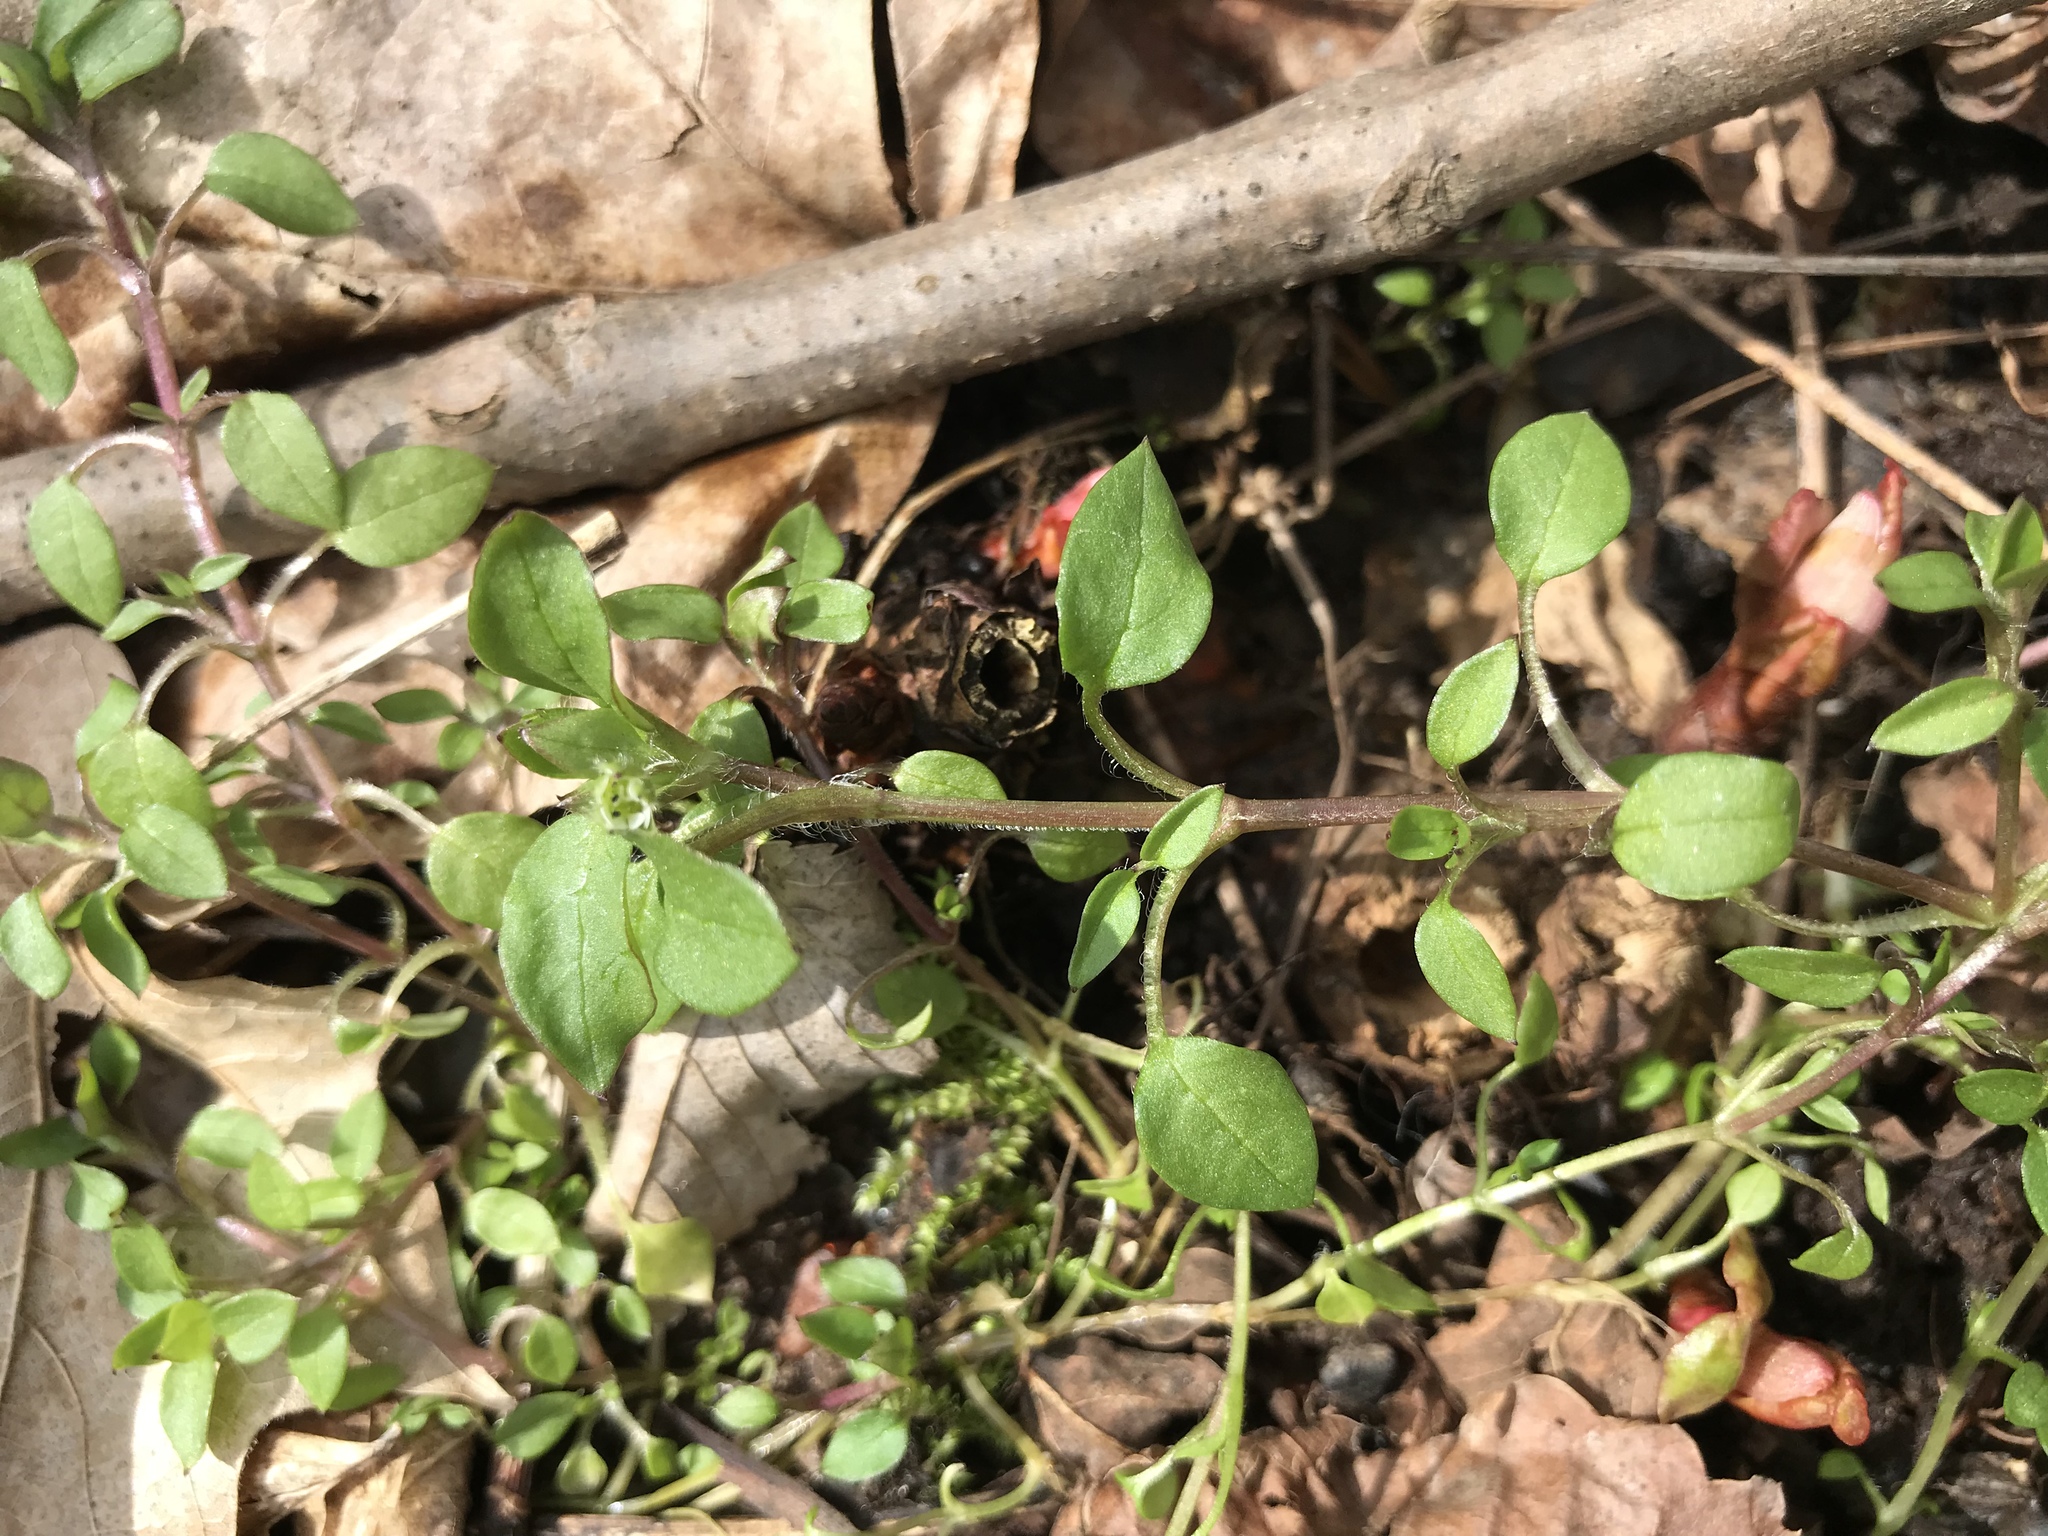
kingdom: Plantae
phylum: Tracheophyta
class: Magnoliopsida
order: Caryophyllales
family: Caryophyllaceae
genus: Stellaria
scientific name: Stellaria media
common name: Common chickweed
